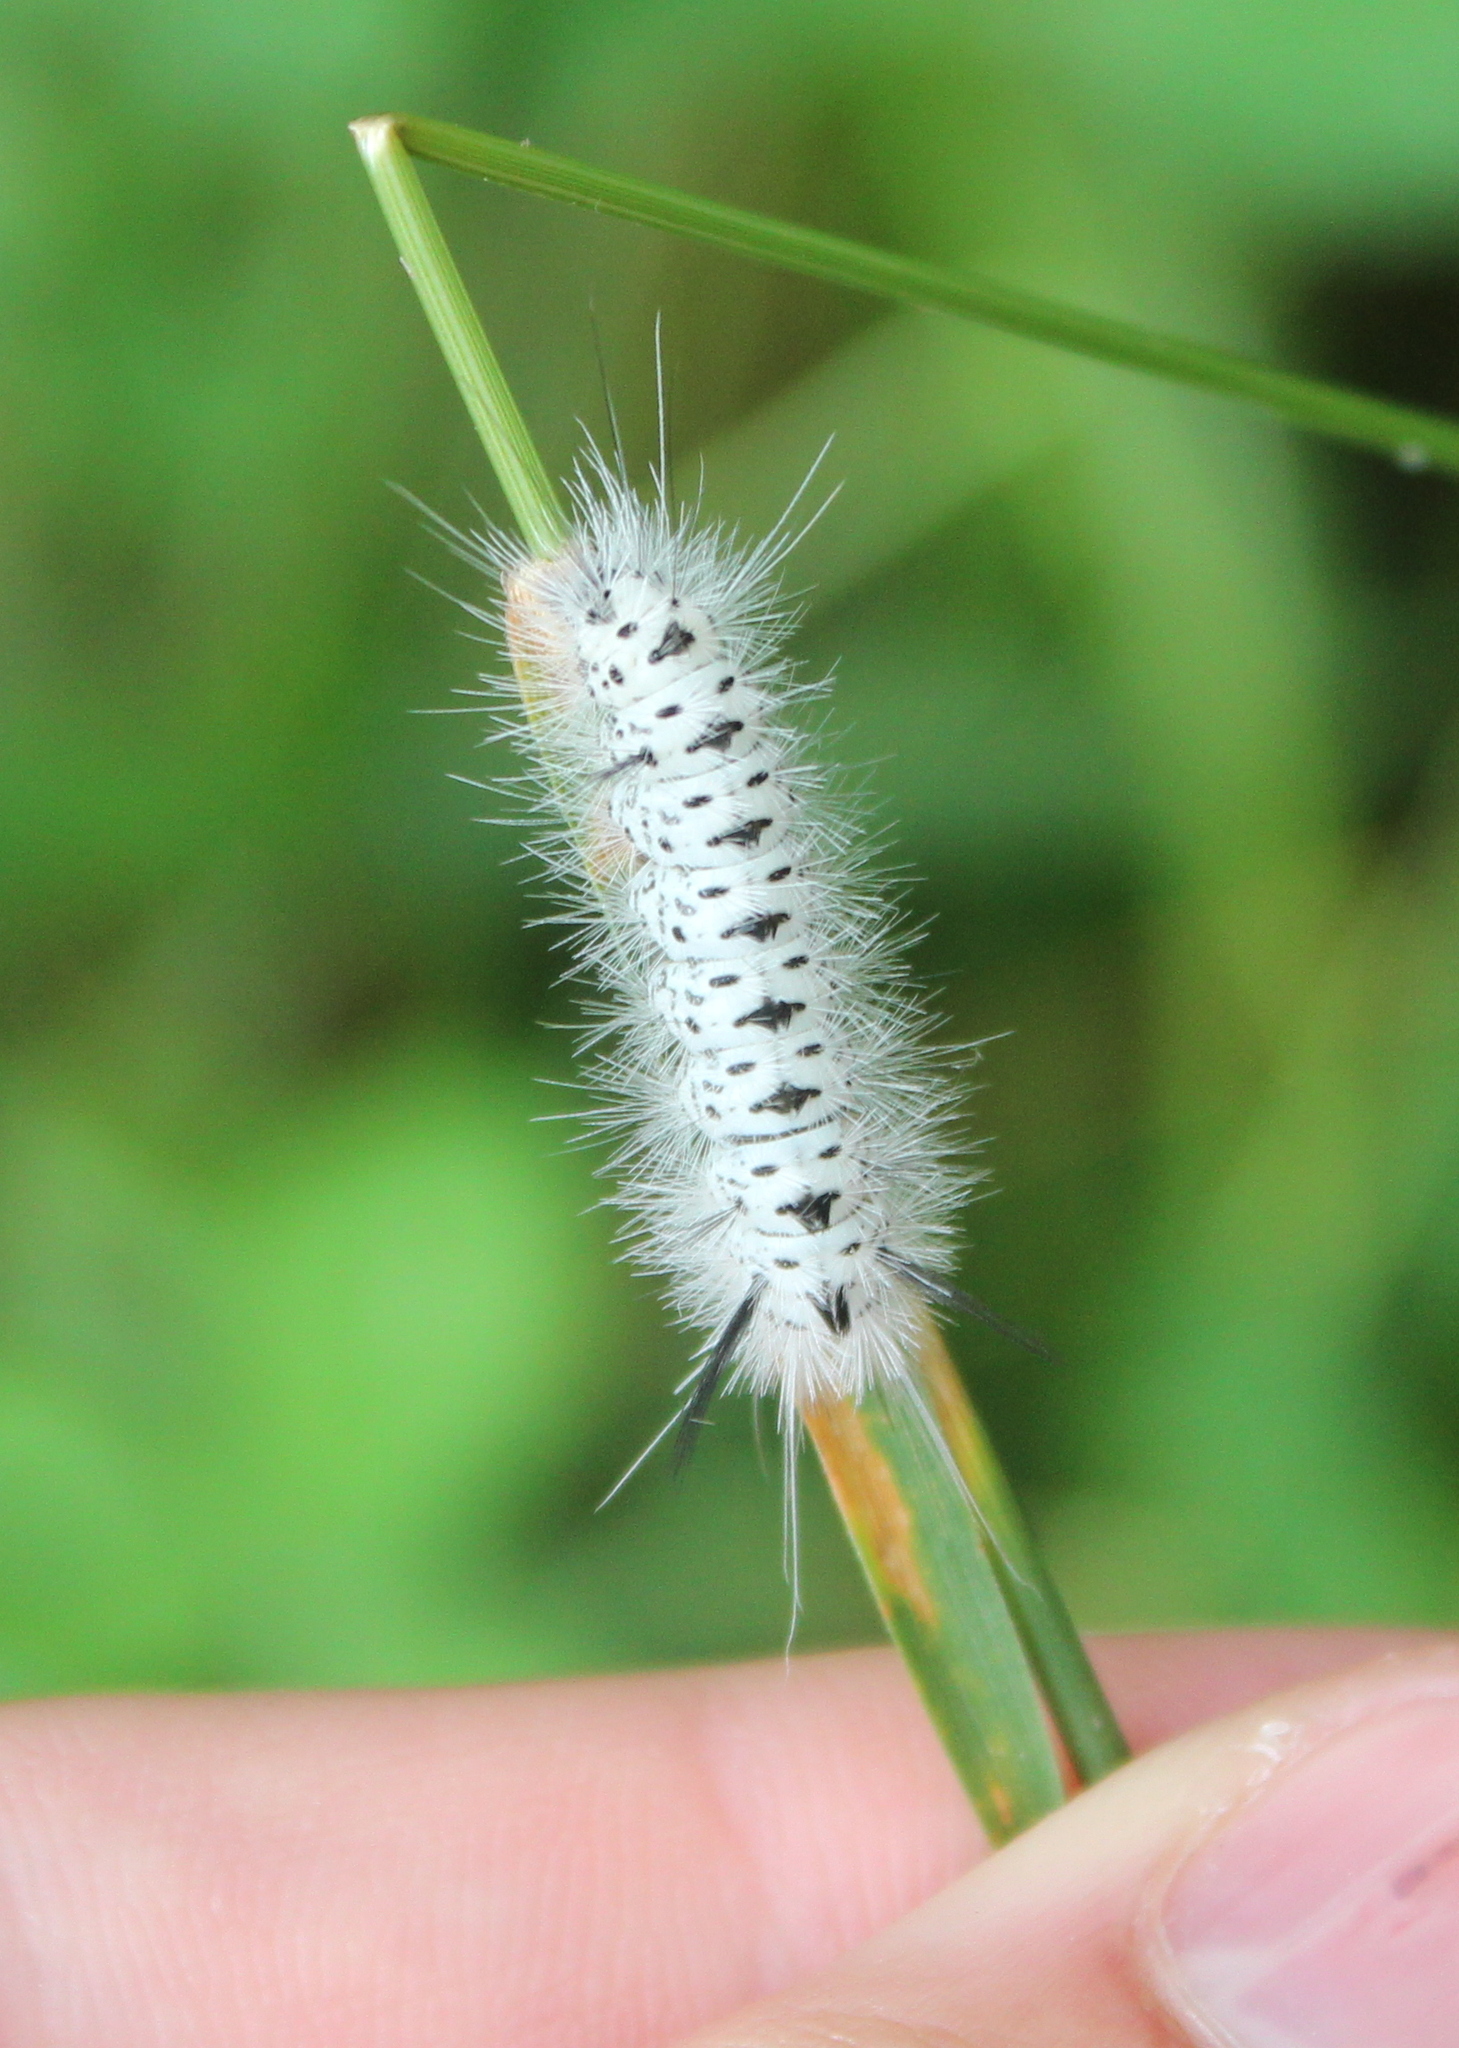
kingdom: Animalia
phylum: Arthropoda
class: Insecta
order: Lepidoptera
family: Erebidae
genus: Lophocampa
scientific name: Lophocampa caryae
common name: Hickory tussock moth
